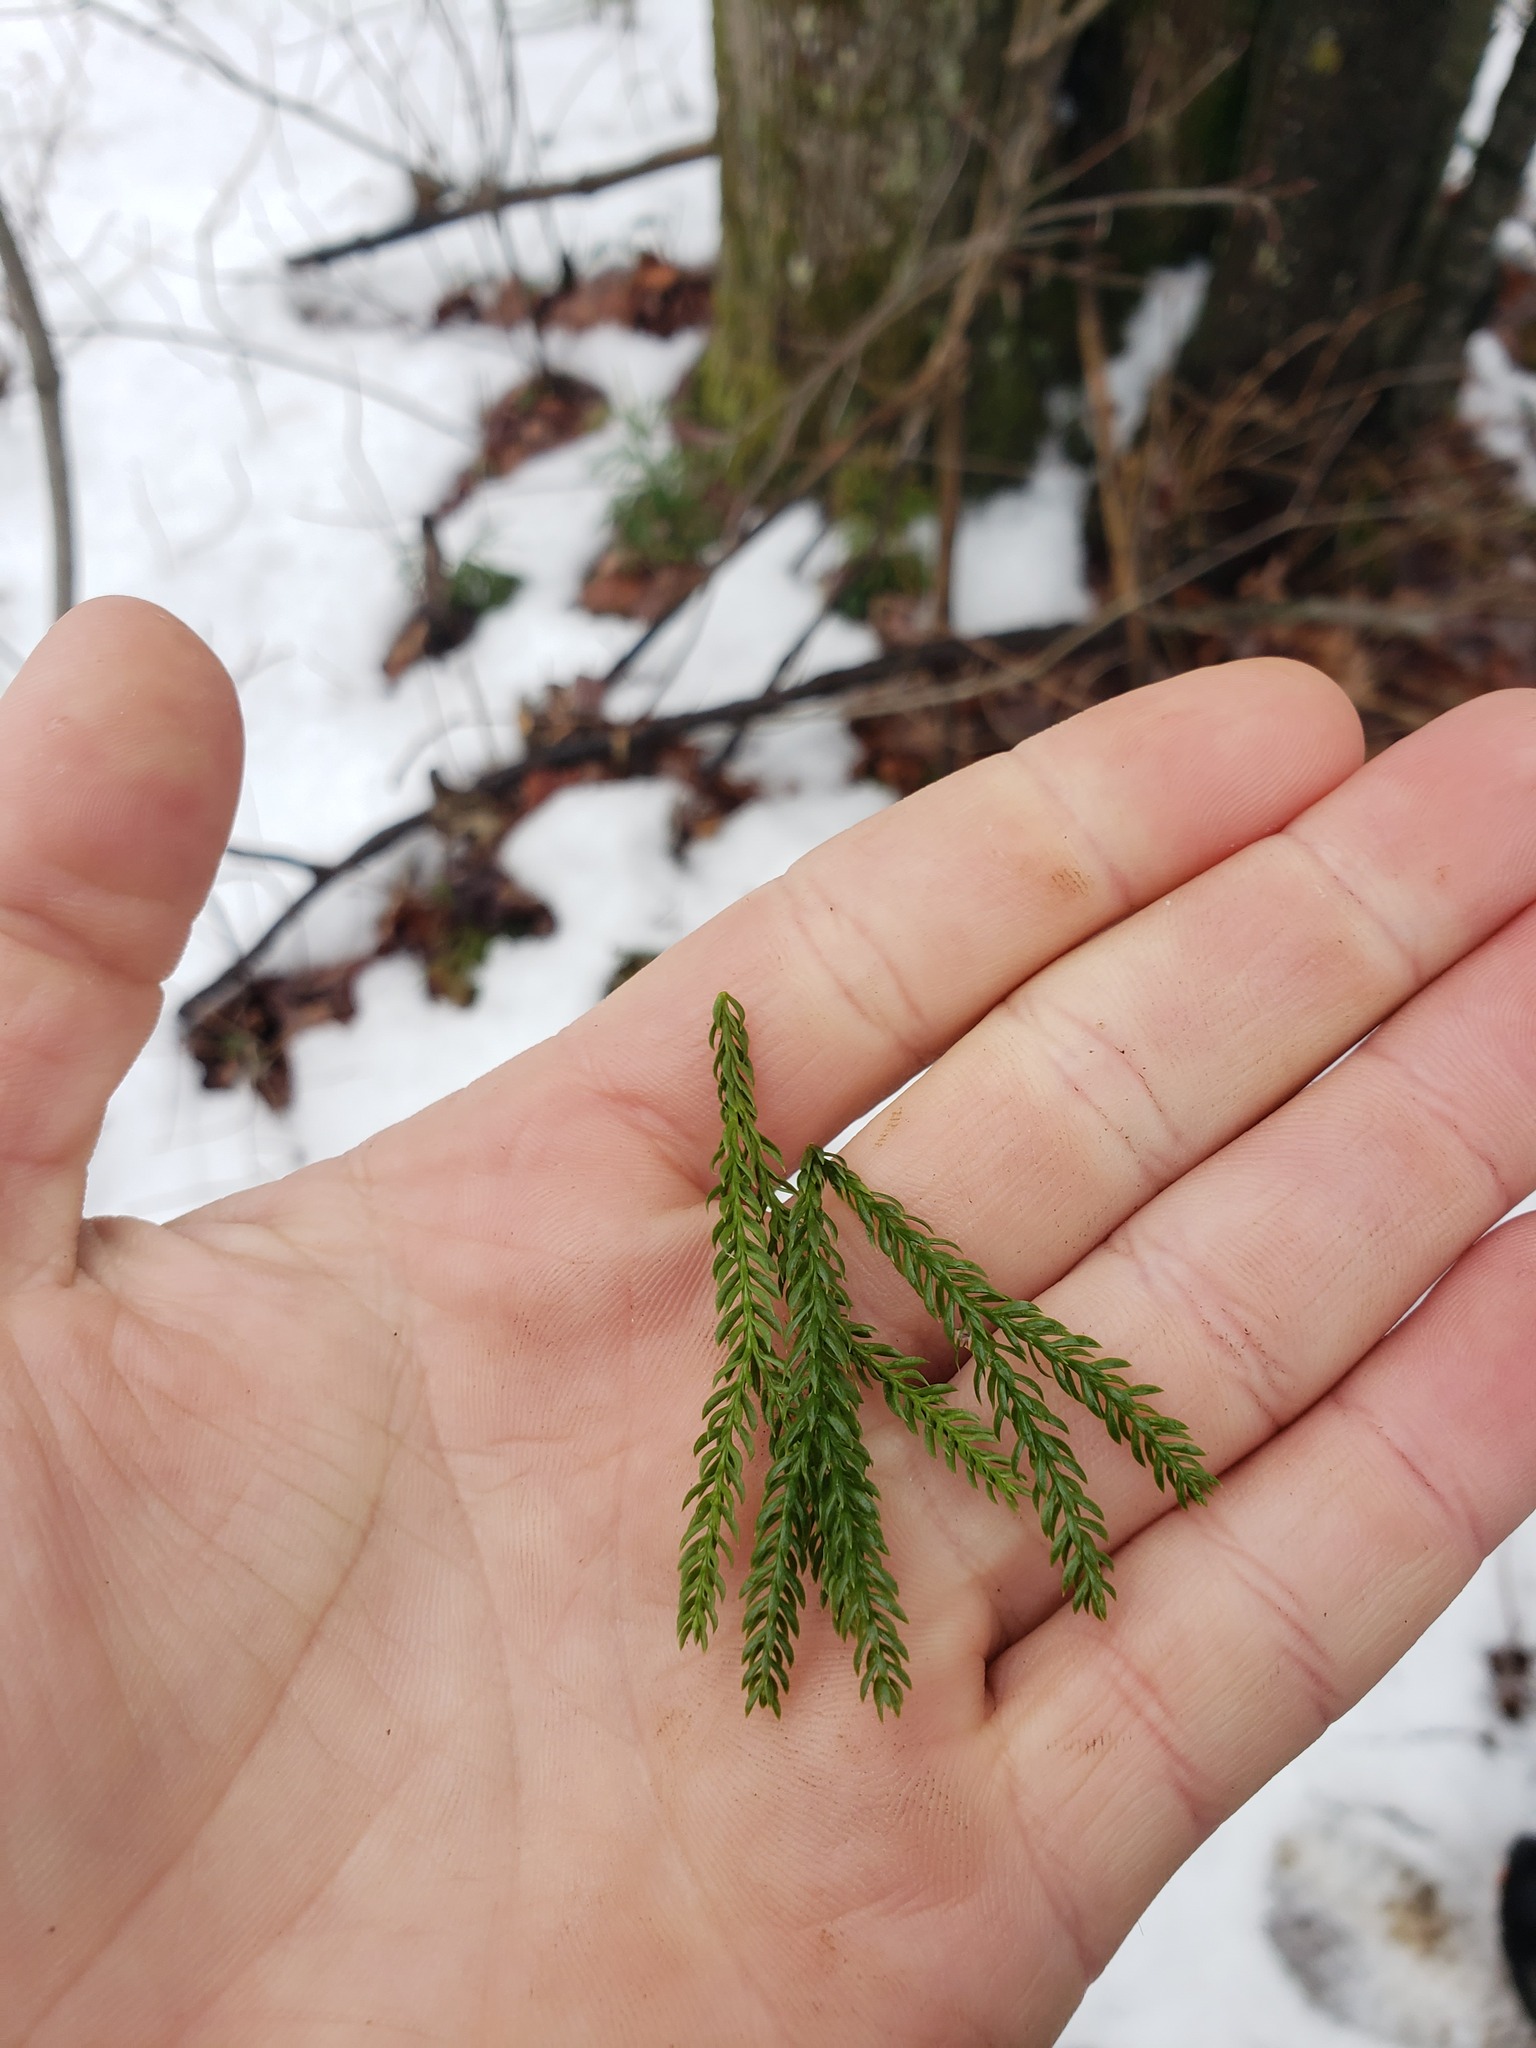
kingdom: Plantae
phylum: Tracheophyta
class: Lycopodiopsida
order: Lycopodiales
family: Lycopodiaceae
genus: Dendrolycopodium
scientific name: Dendrolycopodium obscurum
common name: Common ground-pine
